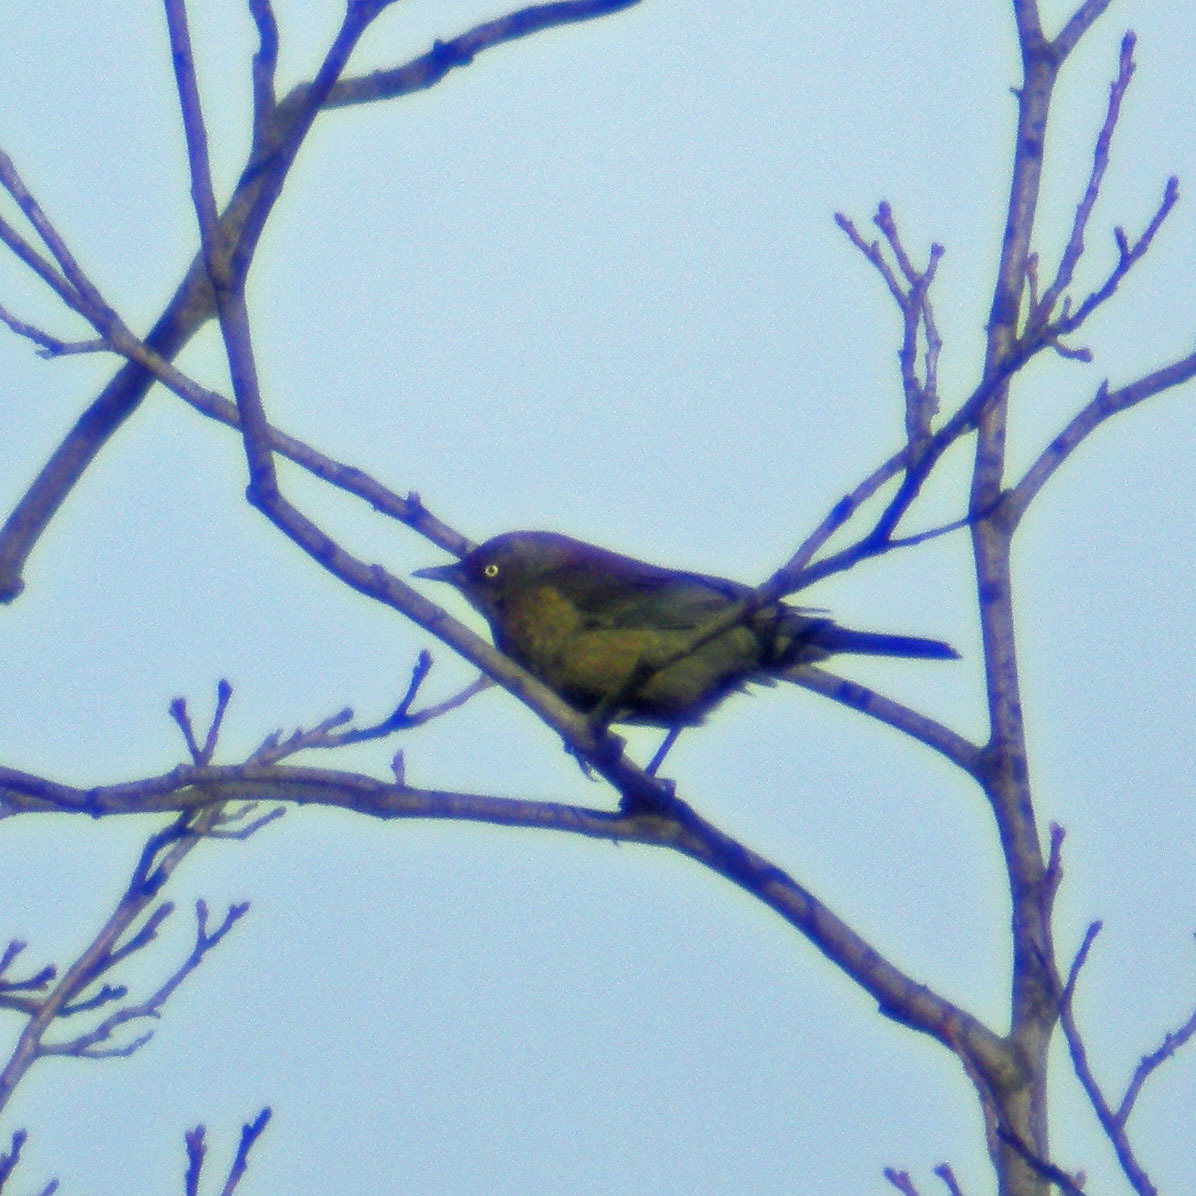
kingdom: Animalia
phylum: Chordata
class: Aves
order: Passeriformes
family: Icteridae
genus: Euphagus
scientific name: Euphagus carolinus
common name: Rusty blackbird
